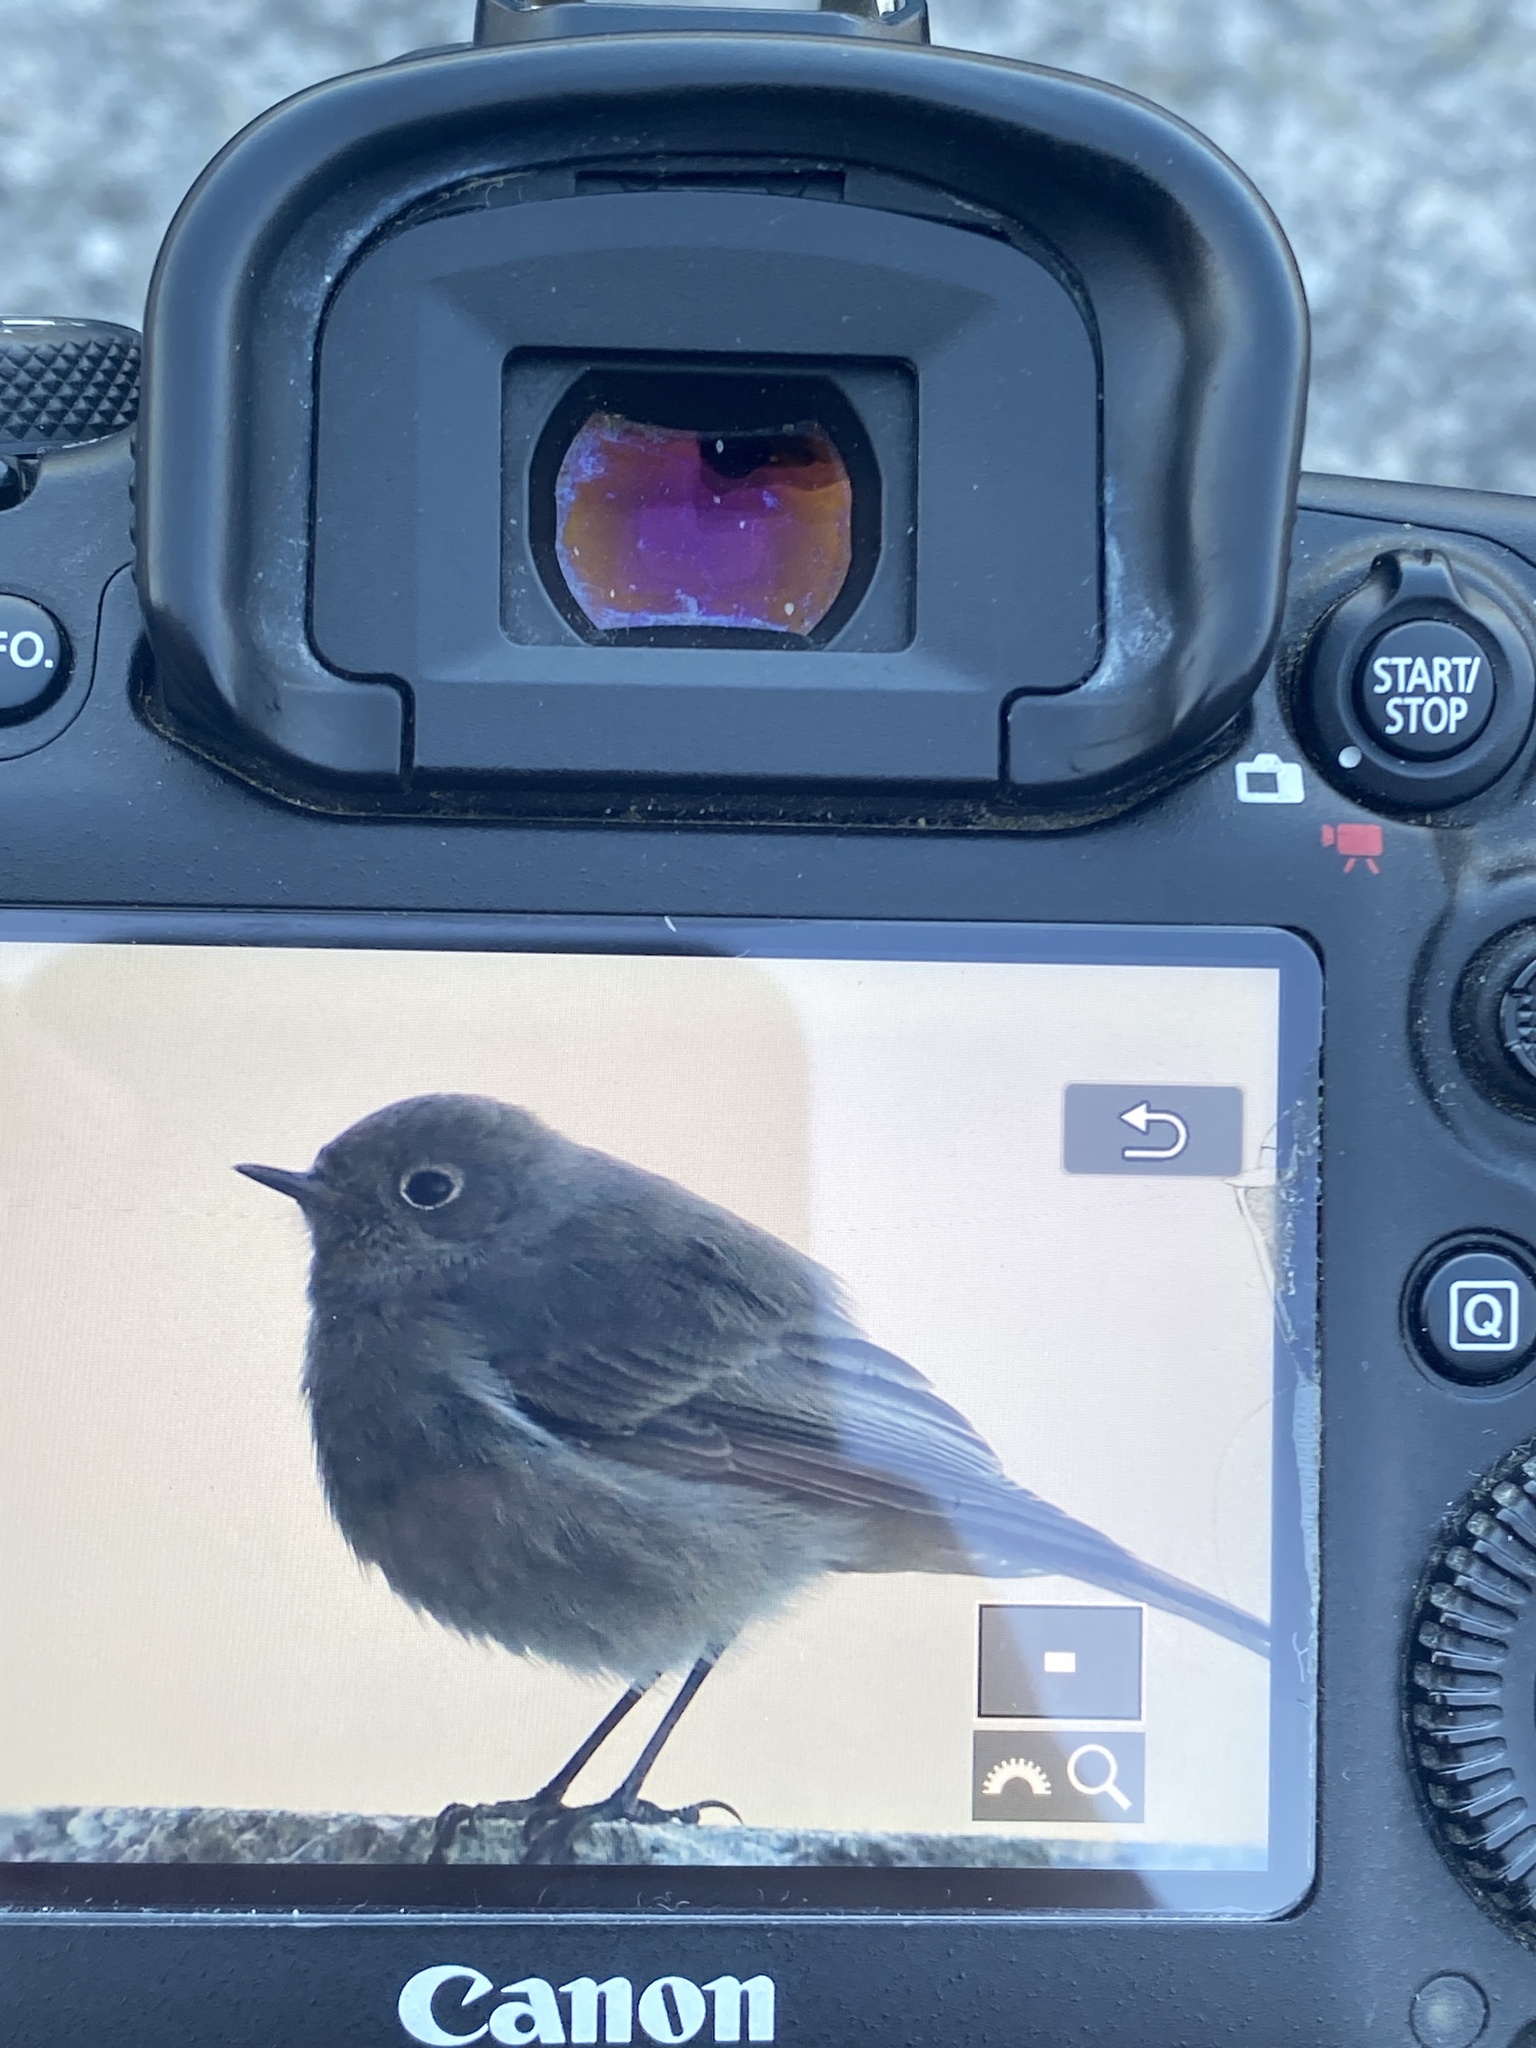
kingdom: Animalia
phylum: Chordata
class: Aves
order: Passeriformes
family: Muscicapidae
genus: Phoenicurus
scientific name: Phoenicurus ochruros
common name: Black redstart
